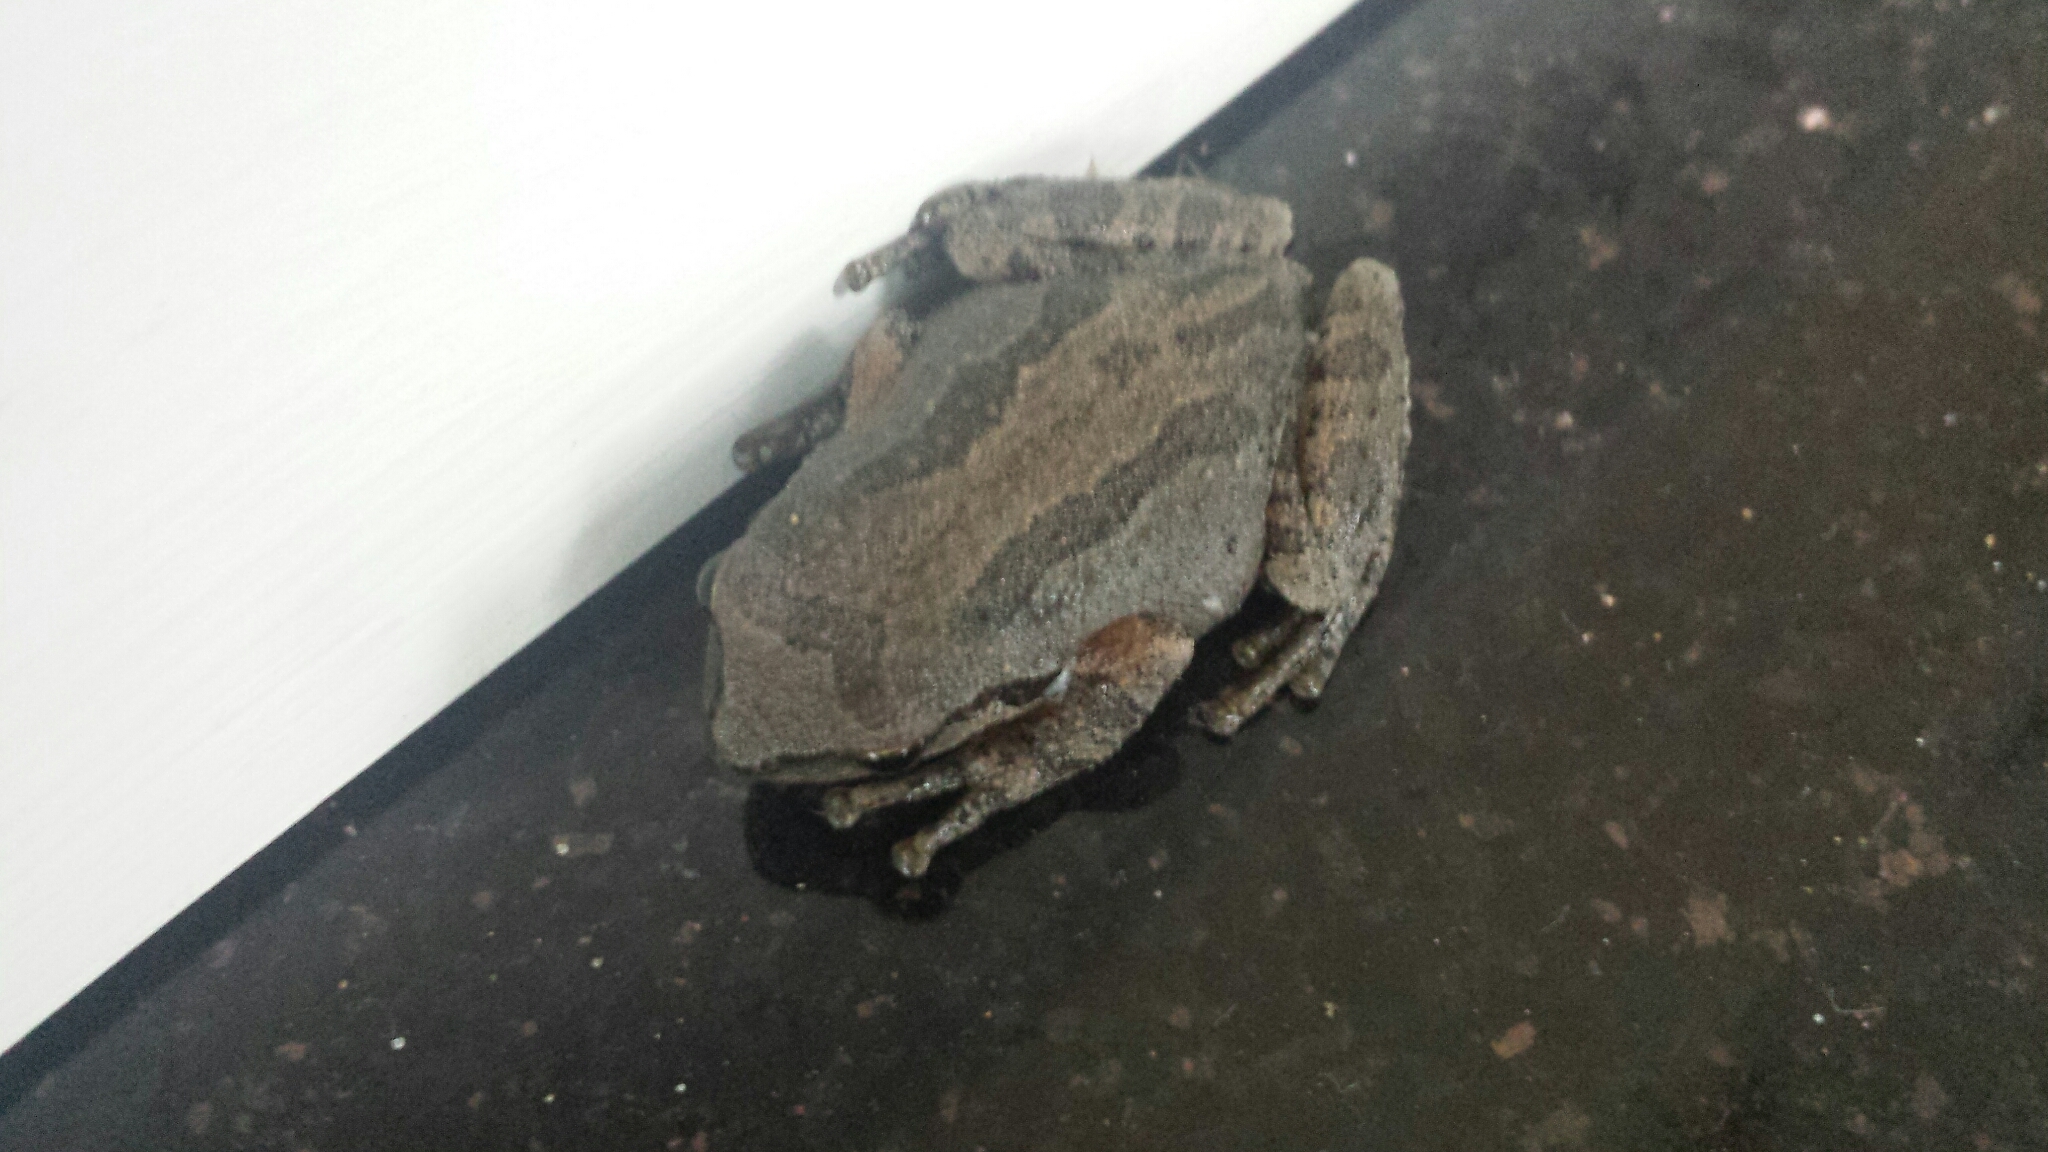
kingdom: Animalia
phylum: Chordata
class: Amphibia
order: Anura
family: Hylidae
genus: Pseudacris
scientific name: Pseudacris regilla
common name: Pacific chorus frog
